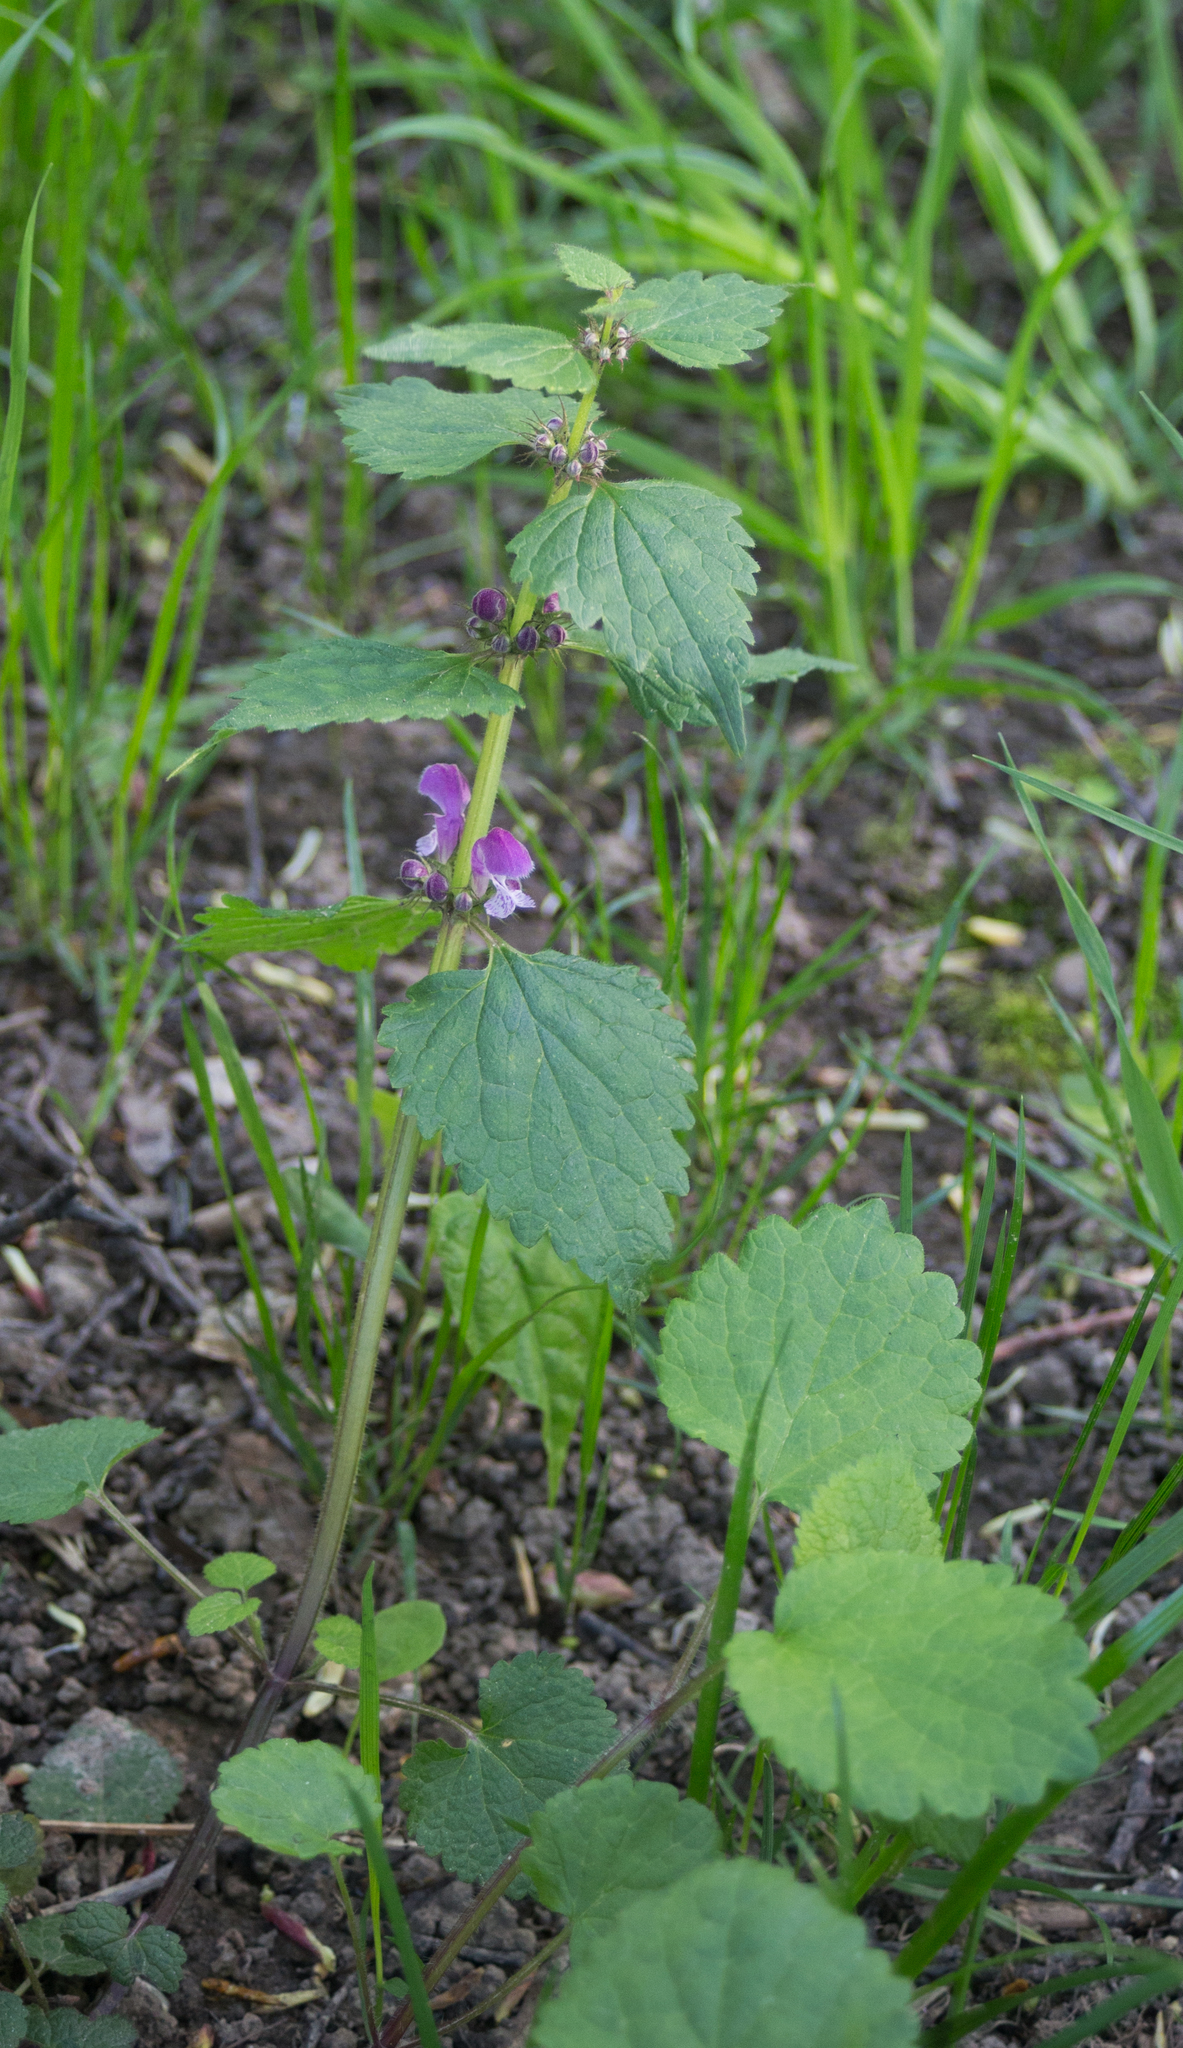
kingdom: Plantae
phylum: Tracheophyta
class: Magnoliopsida
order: Lamiales
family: Lamiaceae
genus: Lamium
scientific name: Lamium maculatum
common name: Spotted dead-nettle
